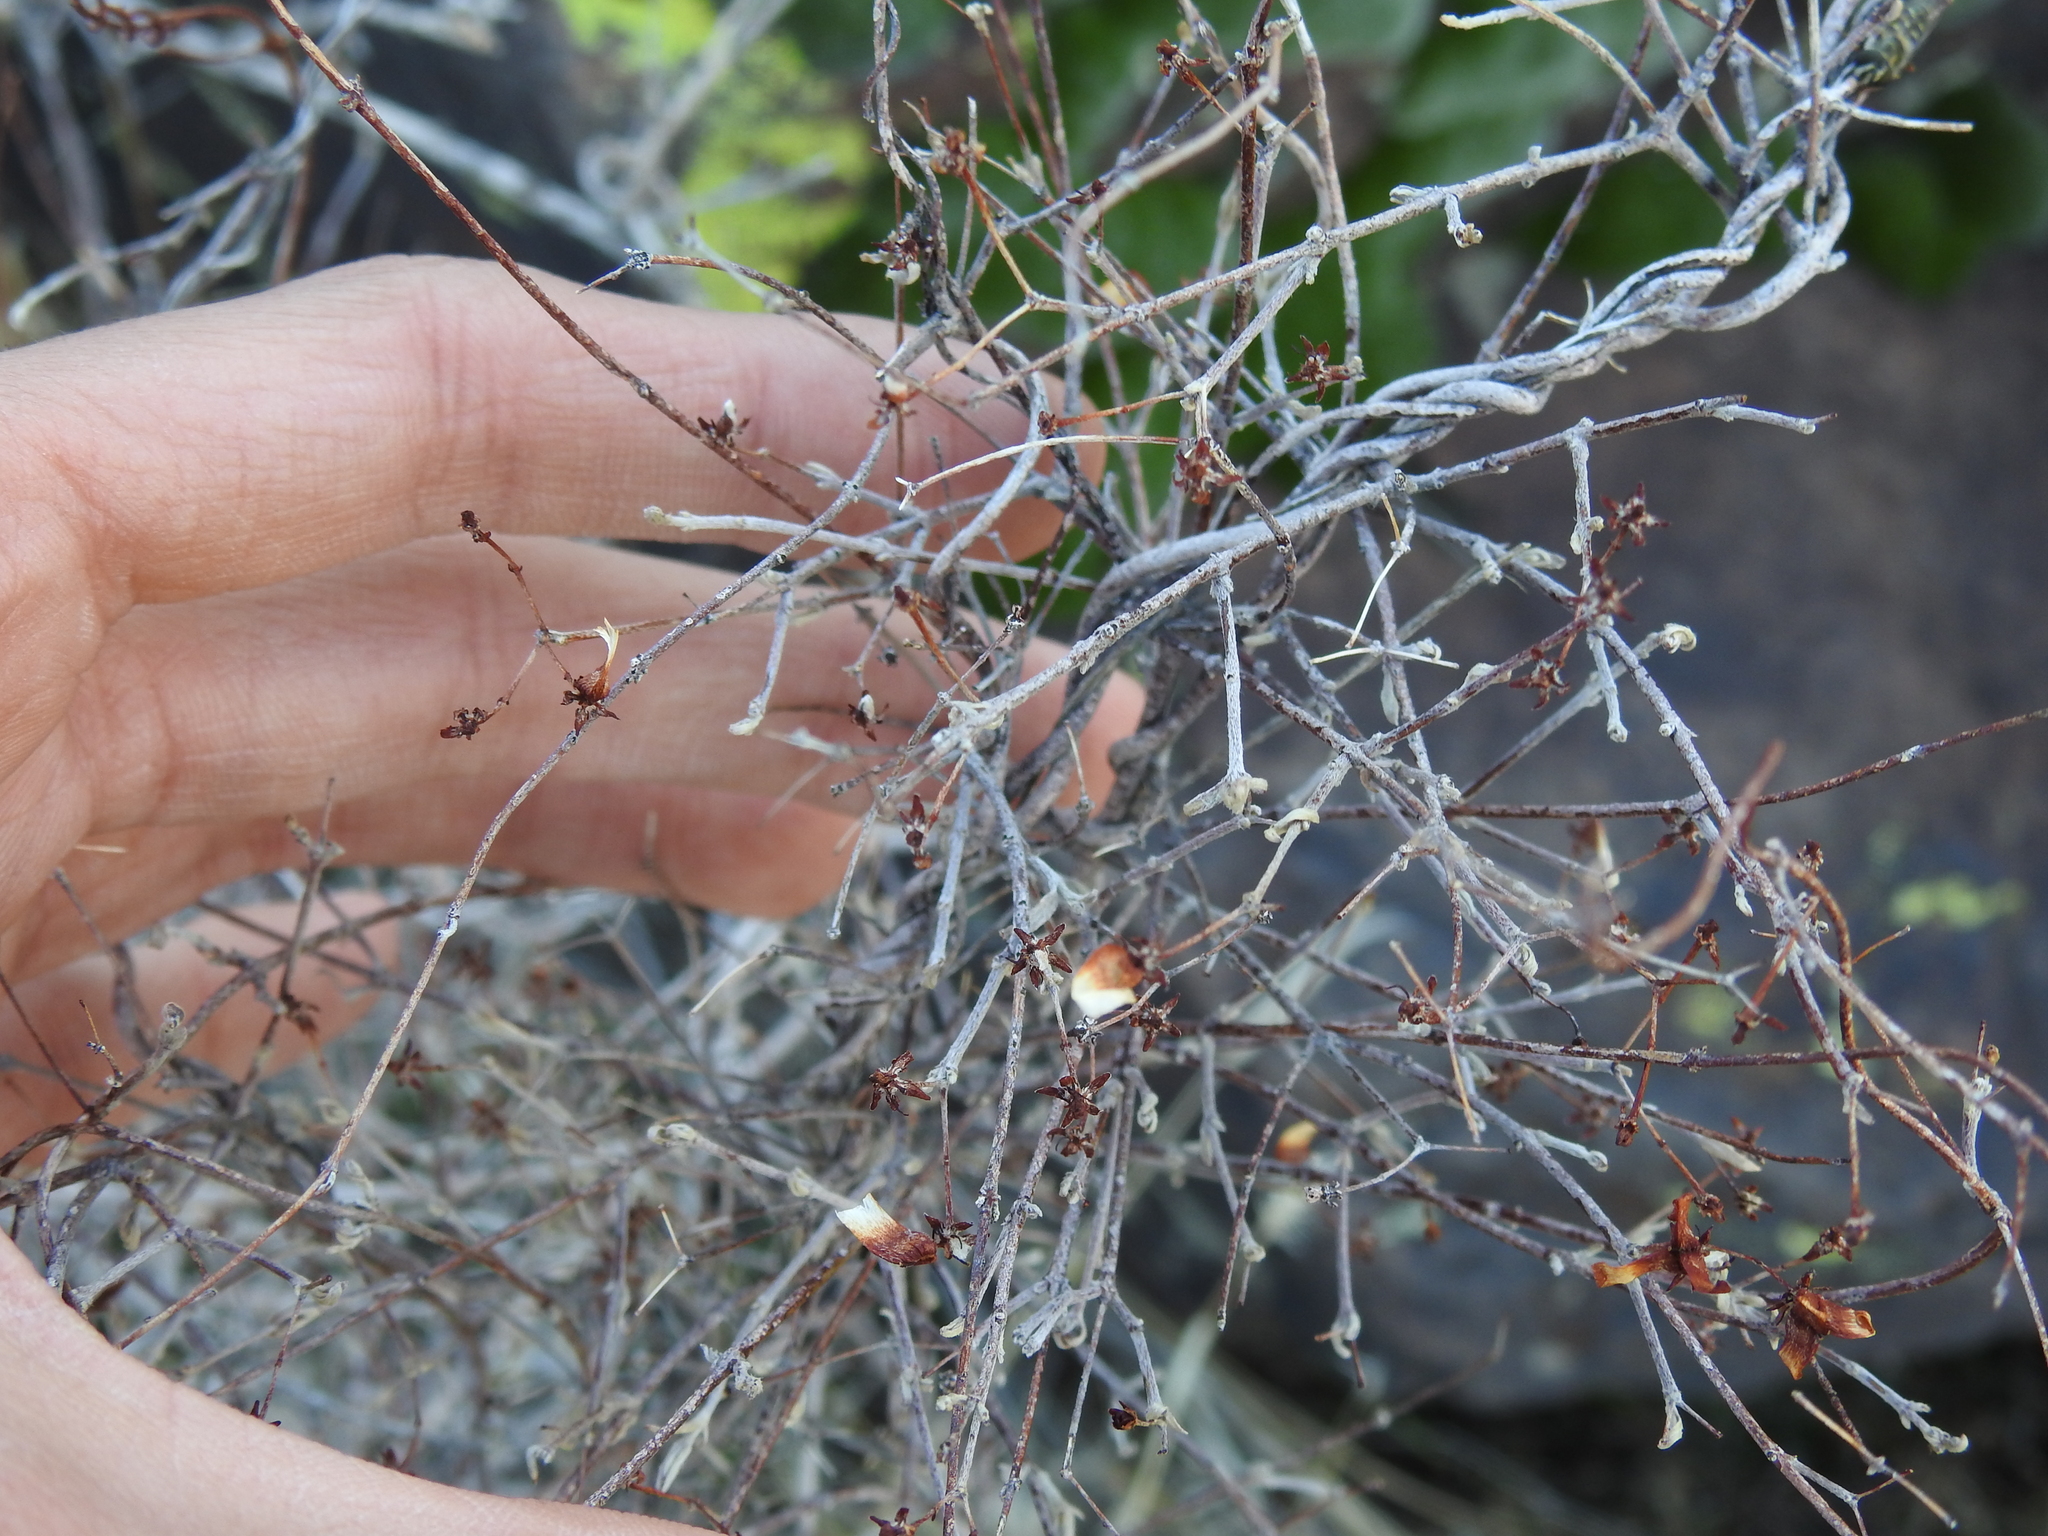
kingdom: Plantae
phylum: Tracheophyta
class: Magnoliopsida
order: Malpighiales
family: Malpighiaceae
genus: Cottsia
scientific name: Cottsia gracilis
